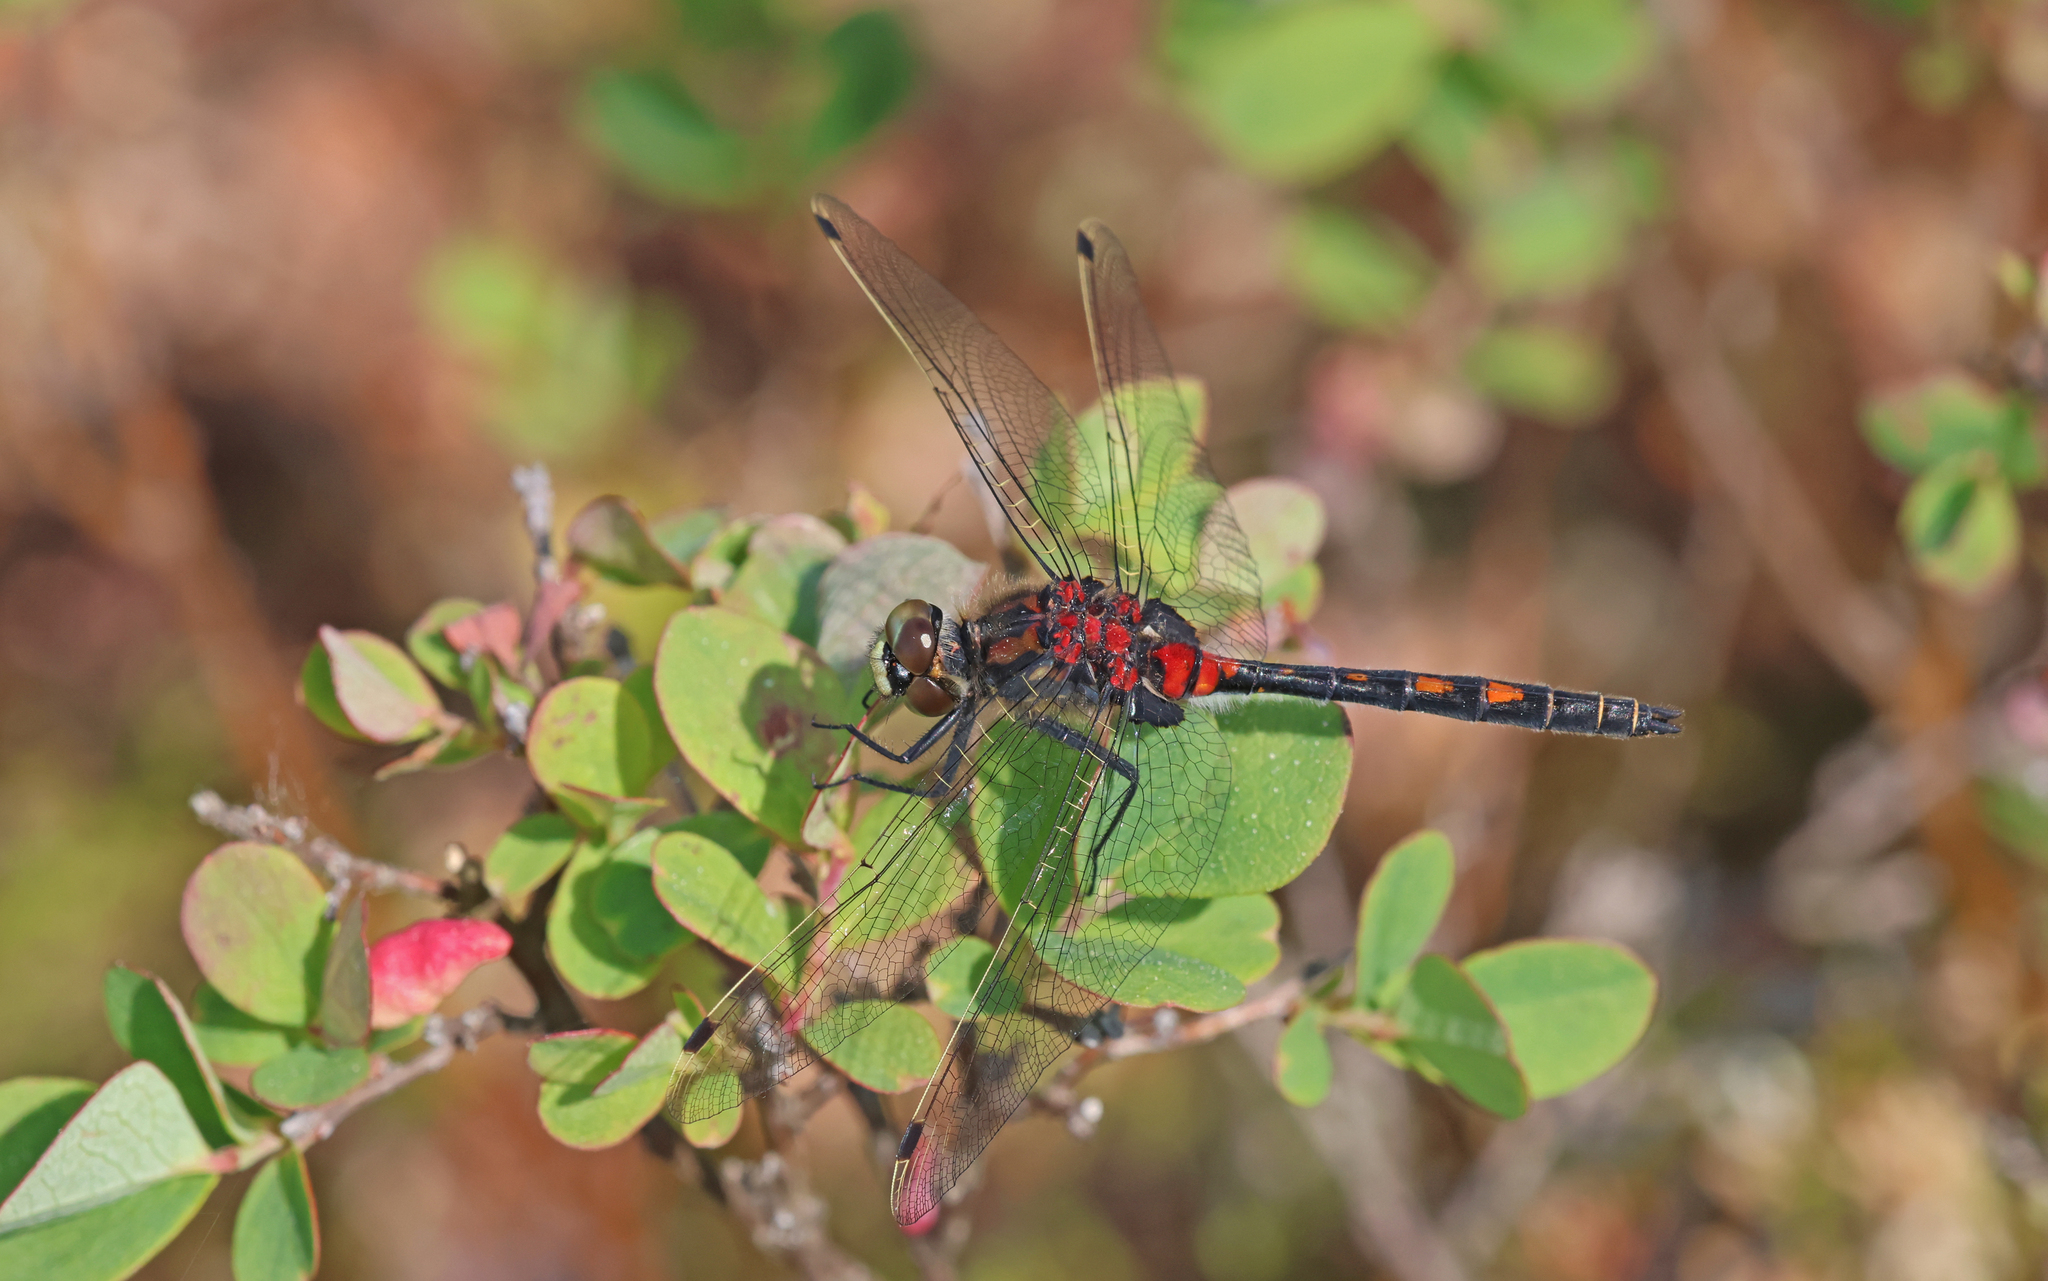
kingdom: Animalia
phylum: Arthropoda
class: Insecta
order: Odonata
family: Libellulidae
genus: Leucorrhinia
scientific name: Leucorrhinia dubia
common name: White-faced darter
